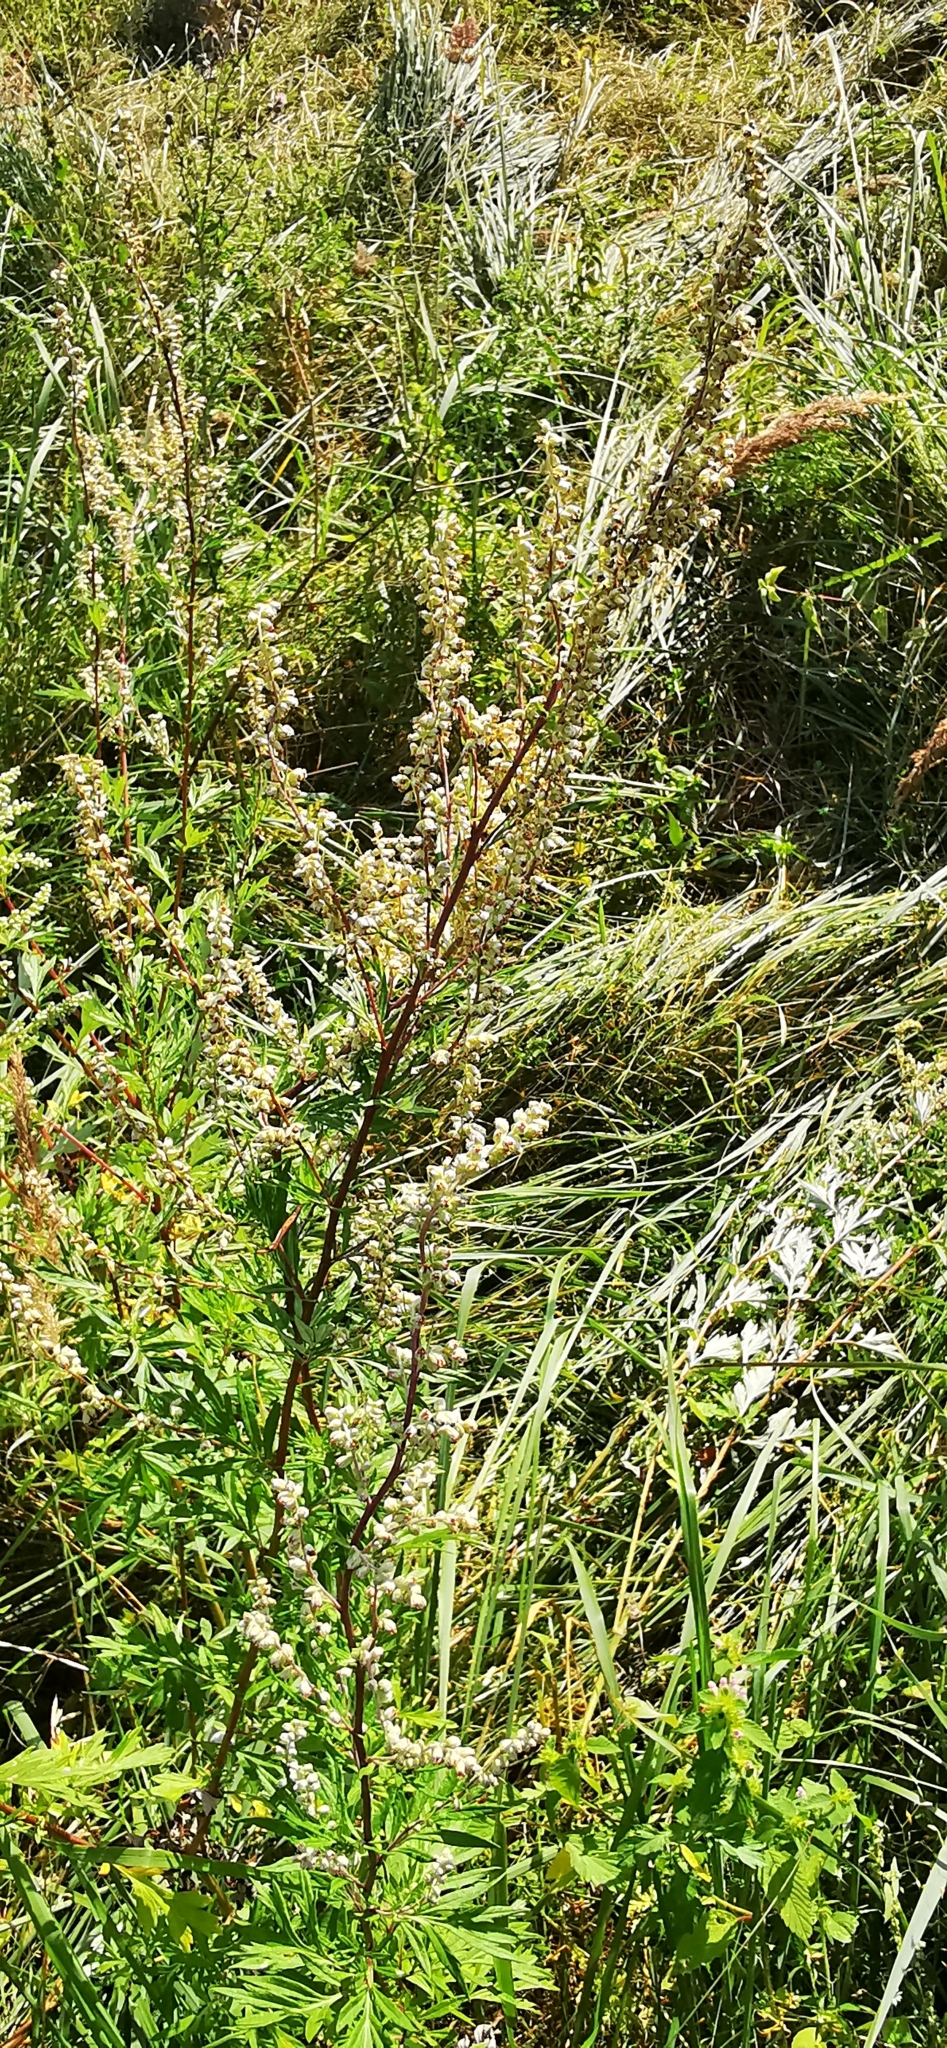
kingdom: Plantae
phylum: Tracheophyta
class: Magnoliopsida
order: Asterales
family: Asteraceae
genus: Artemisia
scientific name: Artemisia vulgaris
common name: Mugwort
